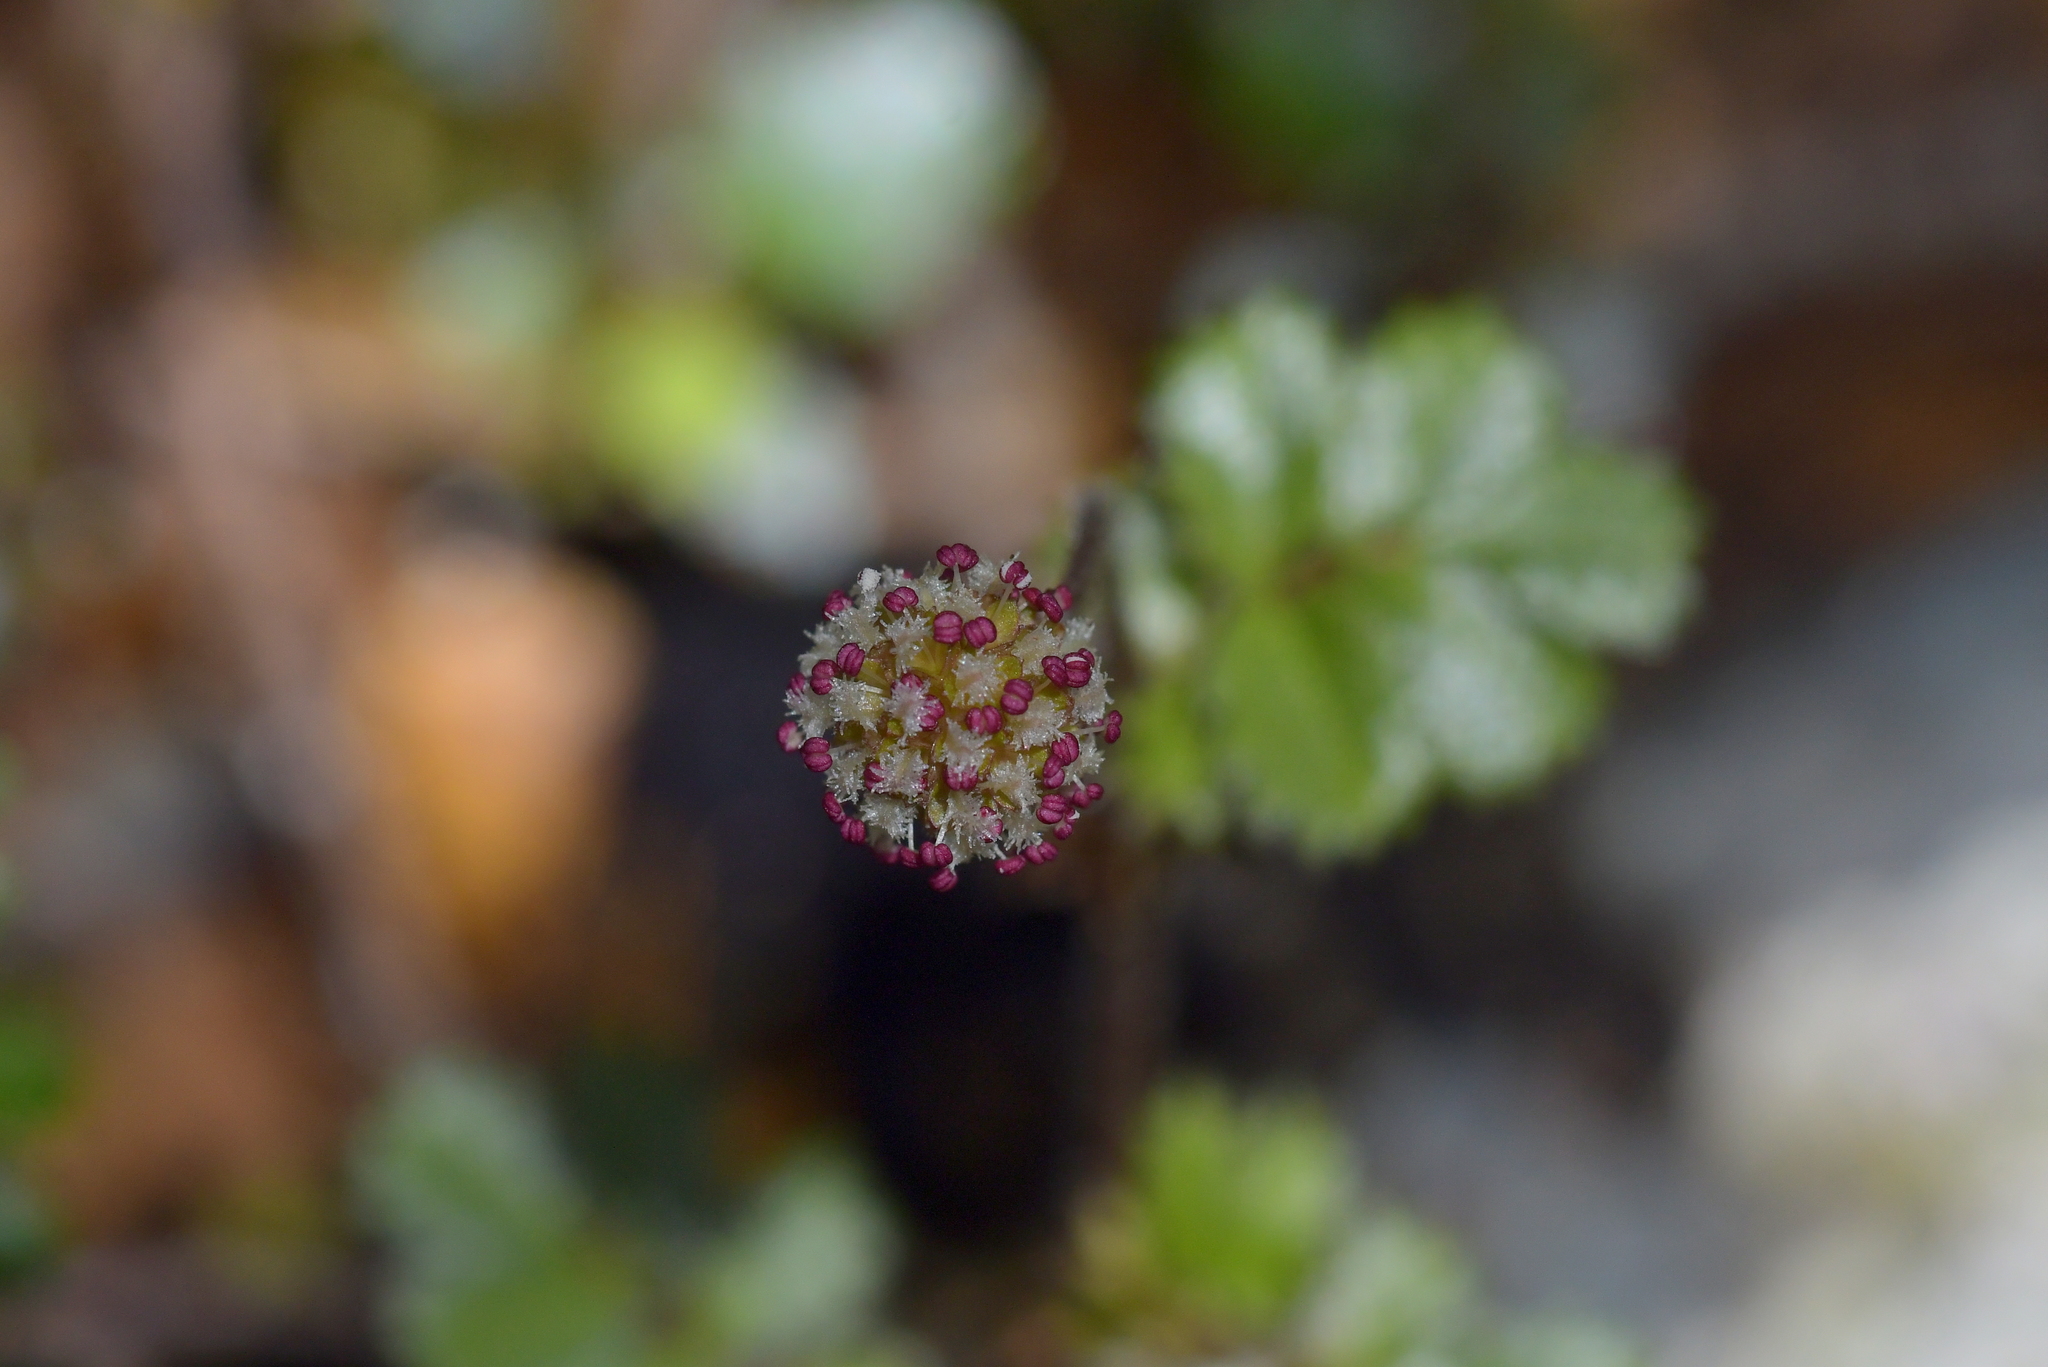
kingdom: Plantae
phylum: Tracheophyta
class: Magnoliopsida
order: Rosales
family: Rosaceae
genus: Acaena
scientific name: Acaena anserinifolia
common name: Bronze pirri-pirri-bur
